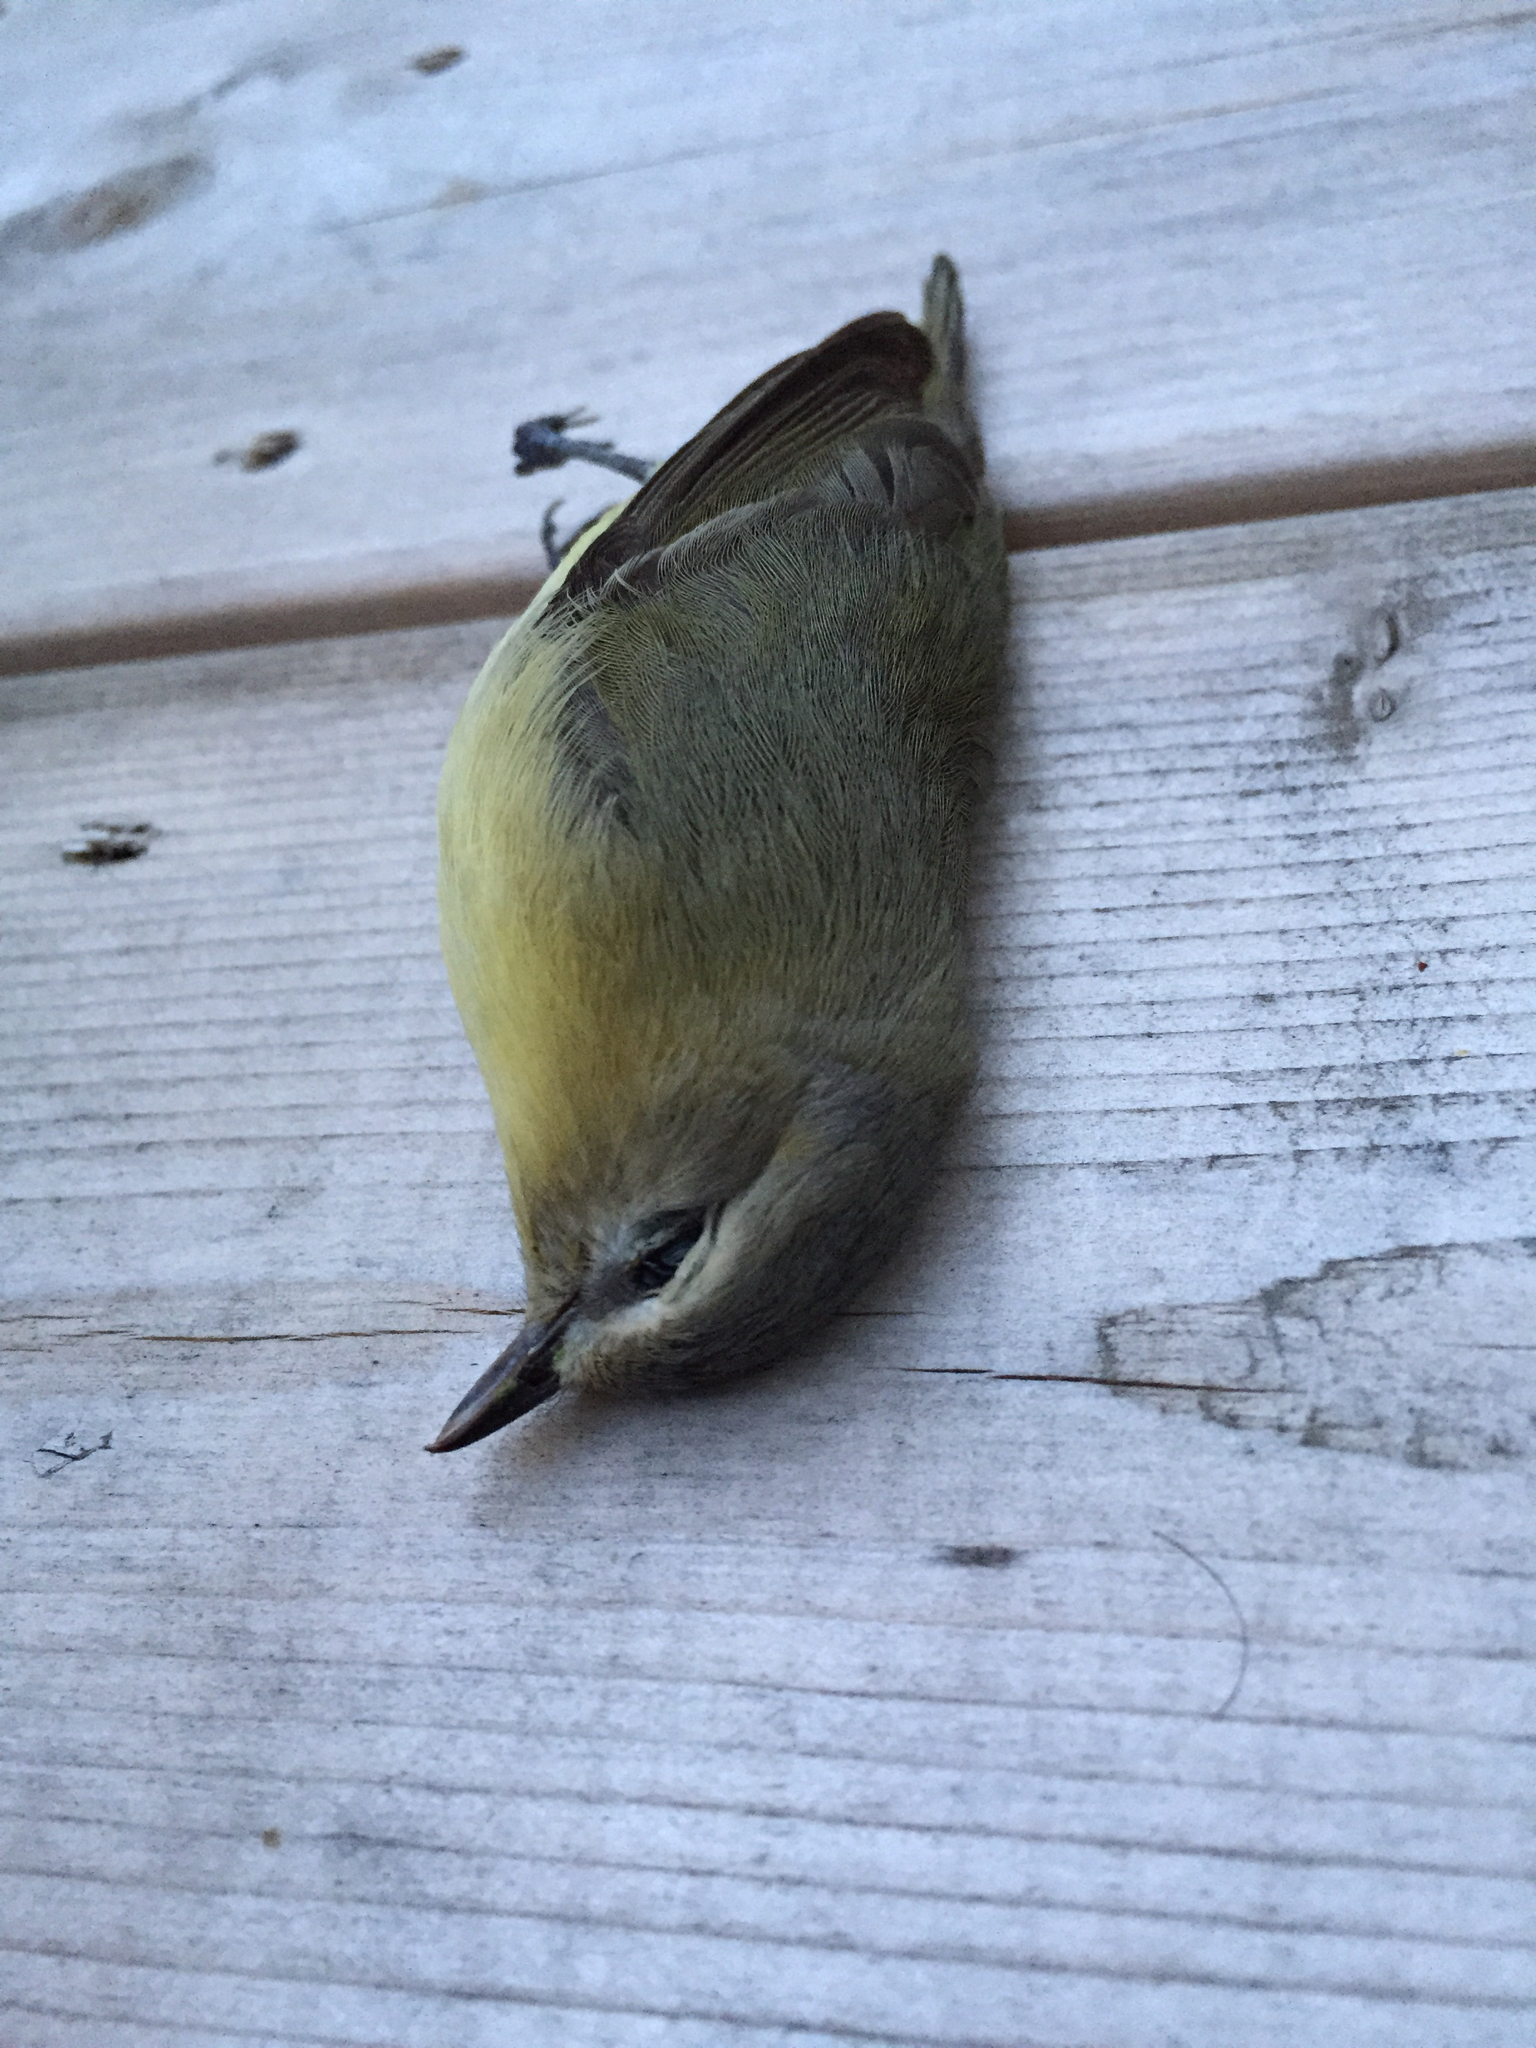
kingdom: Animalia
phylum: Chordata
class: Aves
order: Passeriformes
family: Vireonidae
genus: Vireo
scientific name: Vireo philadelphicus
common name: Philadelphia vireo
